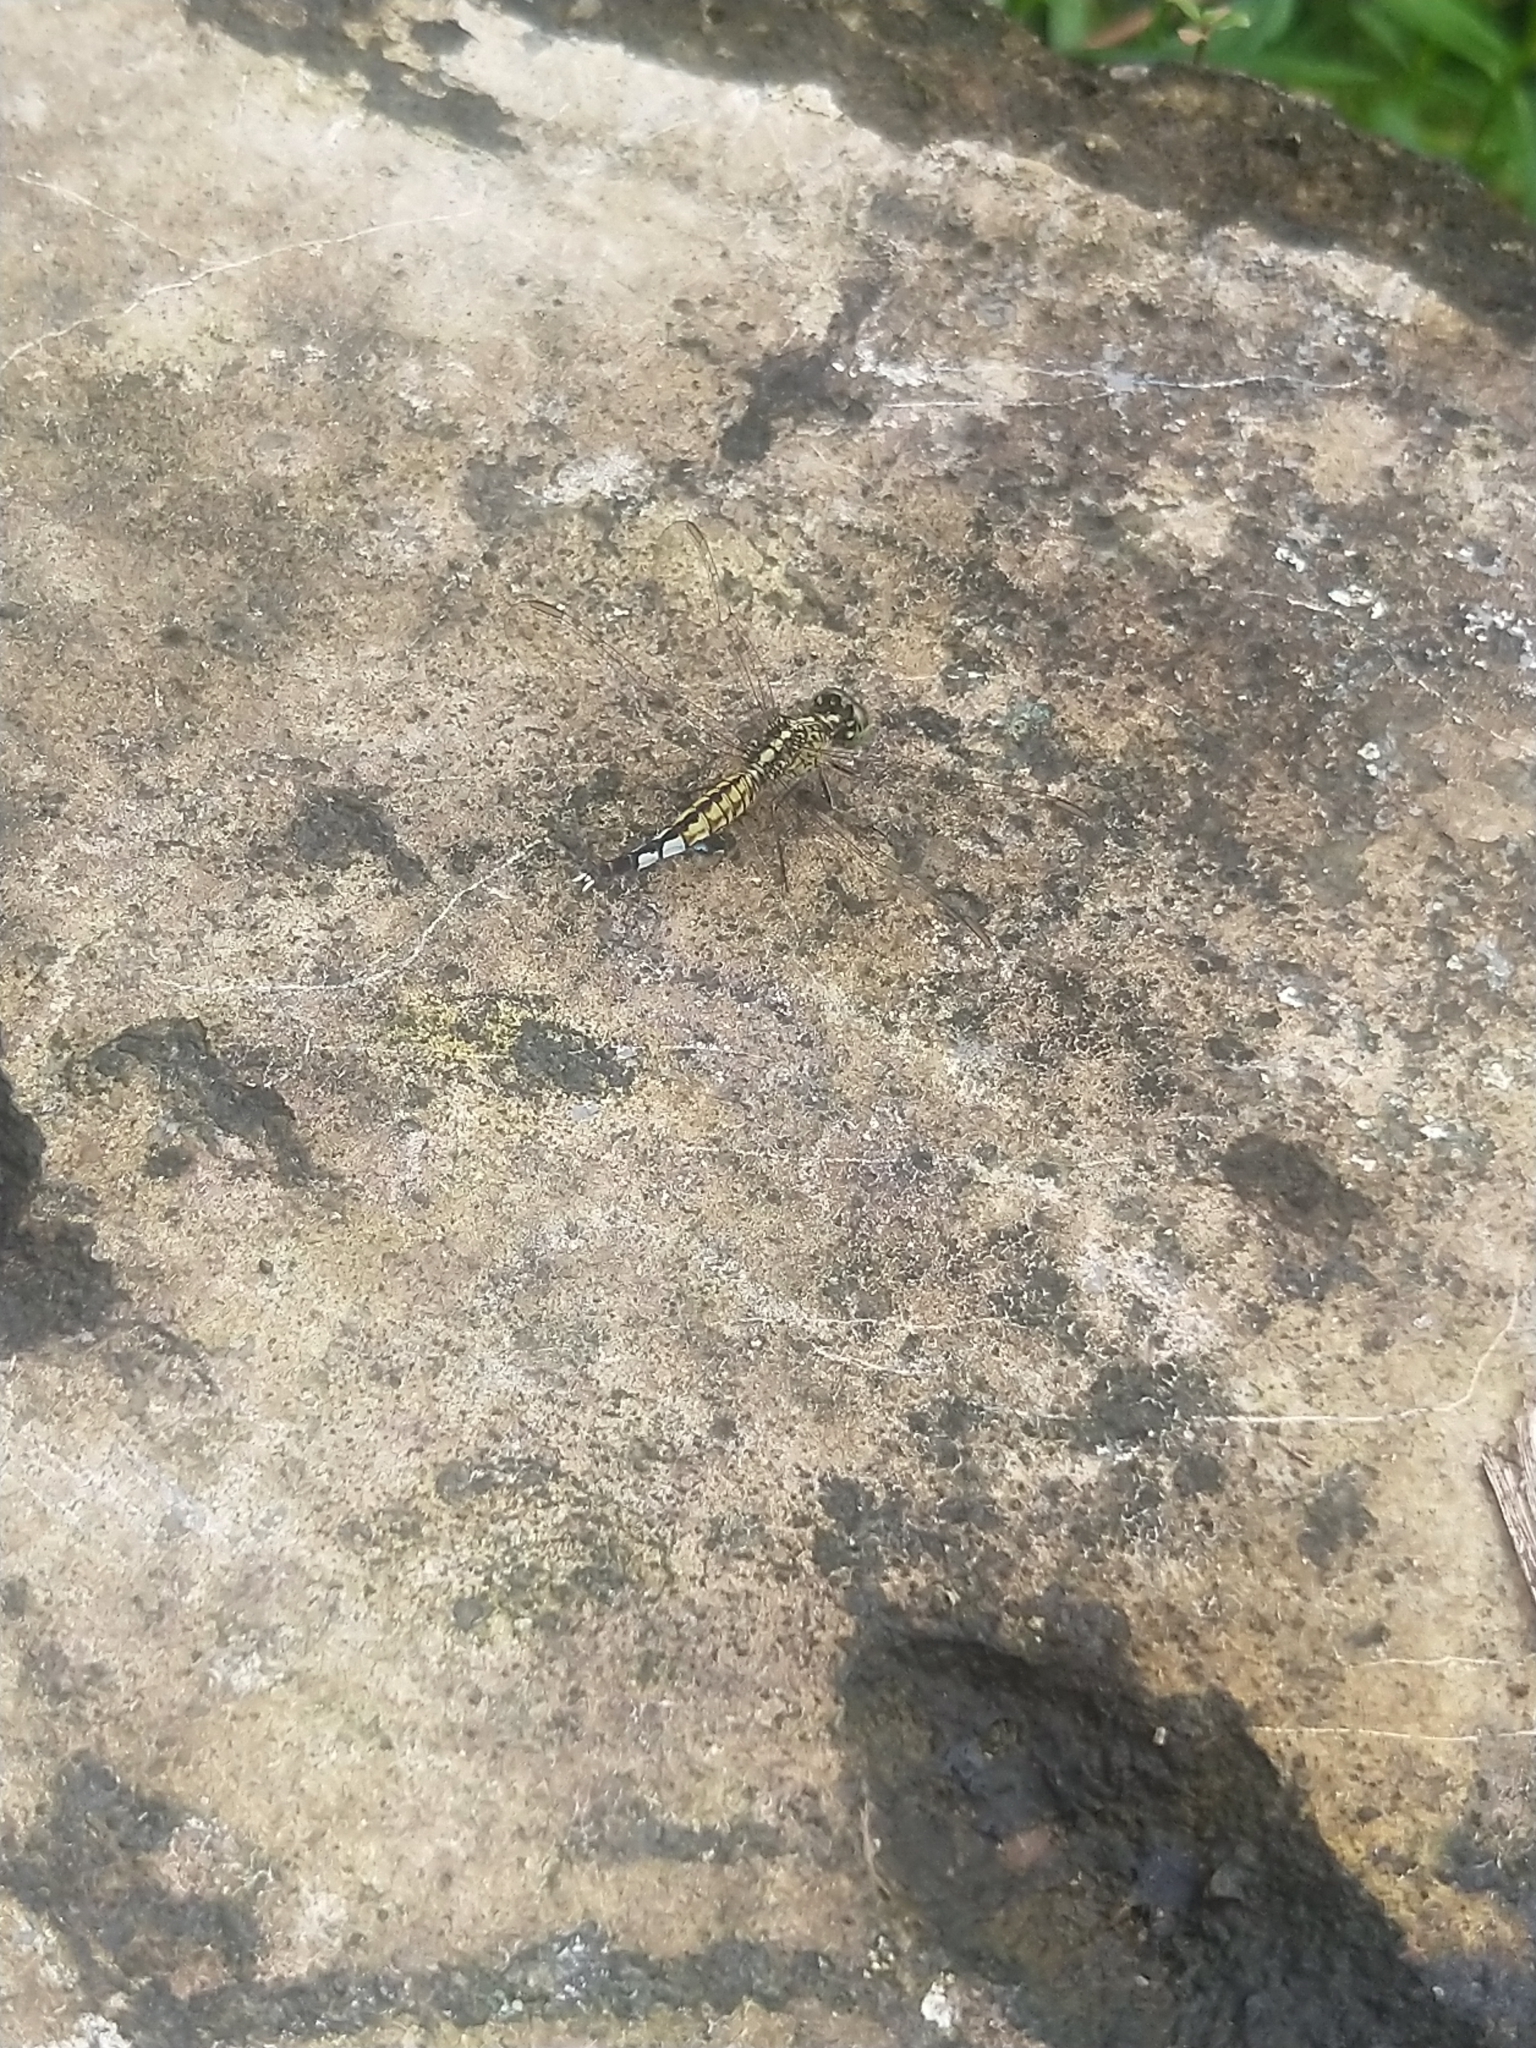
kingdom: Animalia
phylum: Arthropoda
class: Insecta
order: Odonata
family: Libellulidae
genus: Acisoma
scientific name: Acisoma panorpoides
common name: Asian pintail
